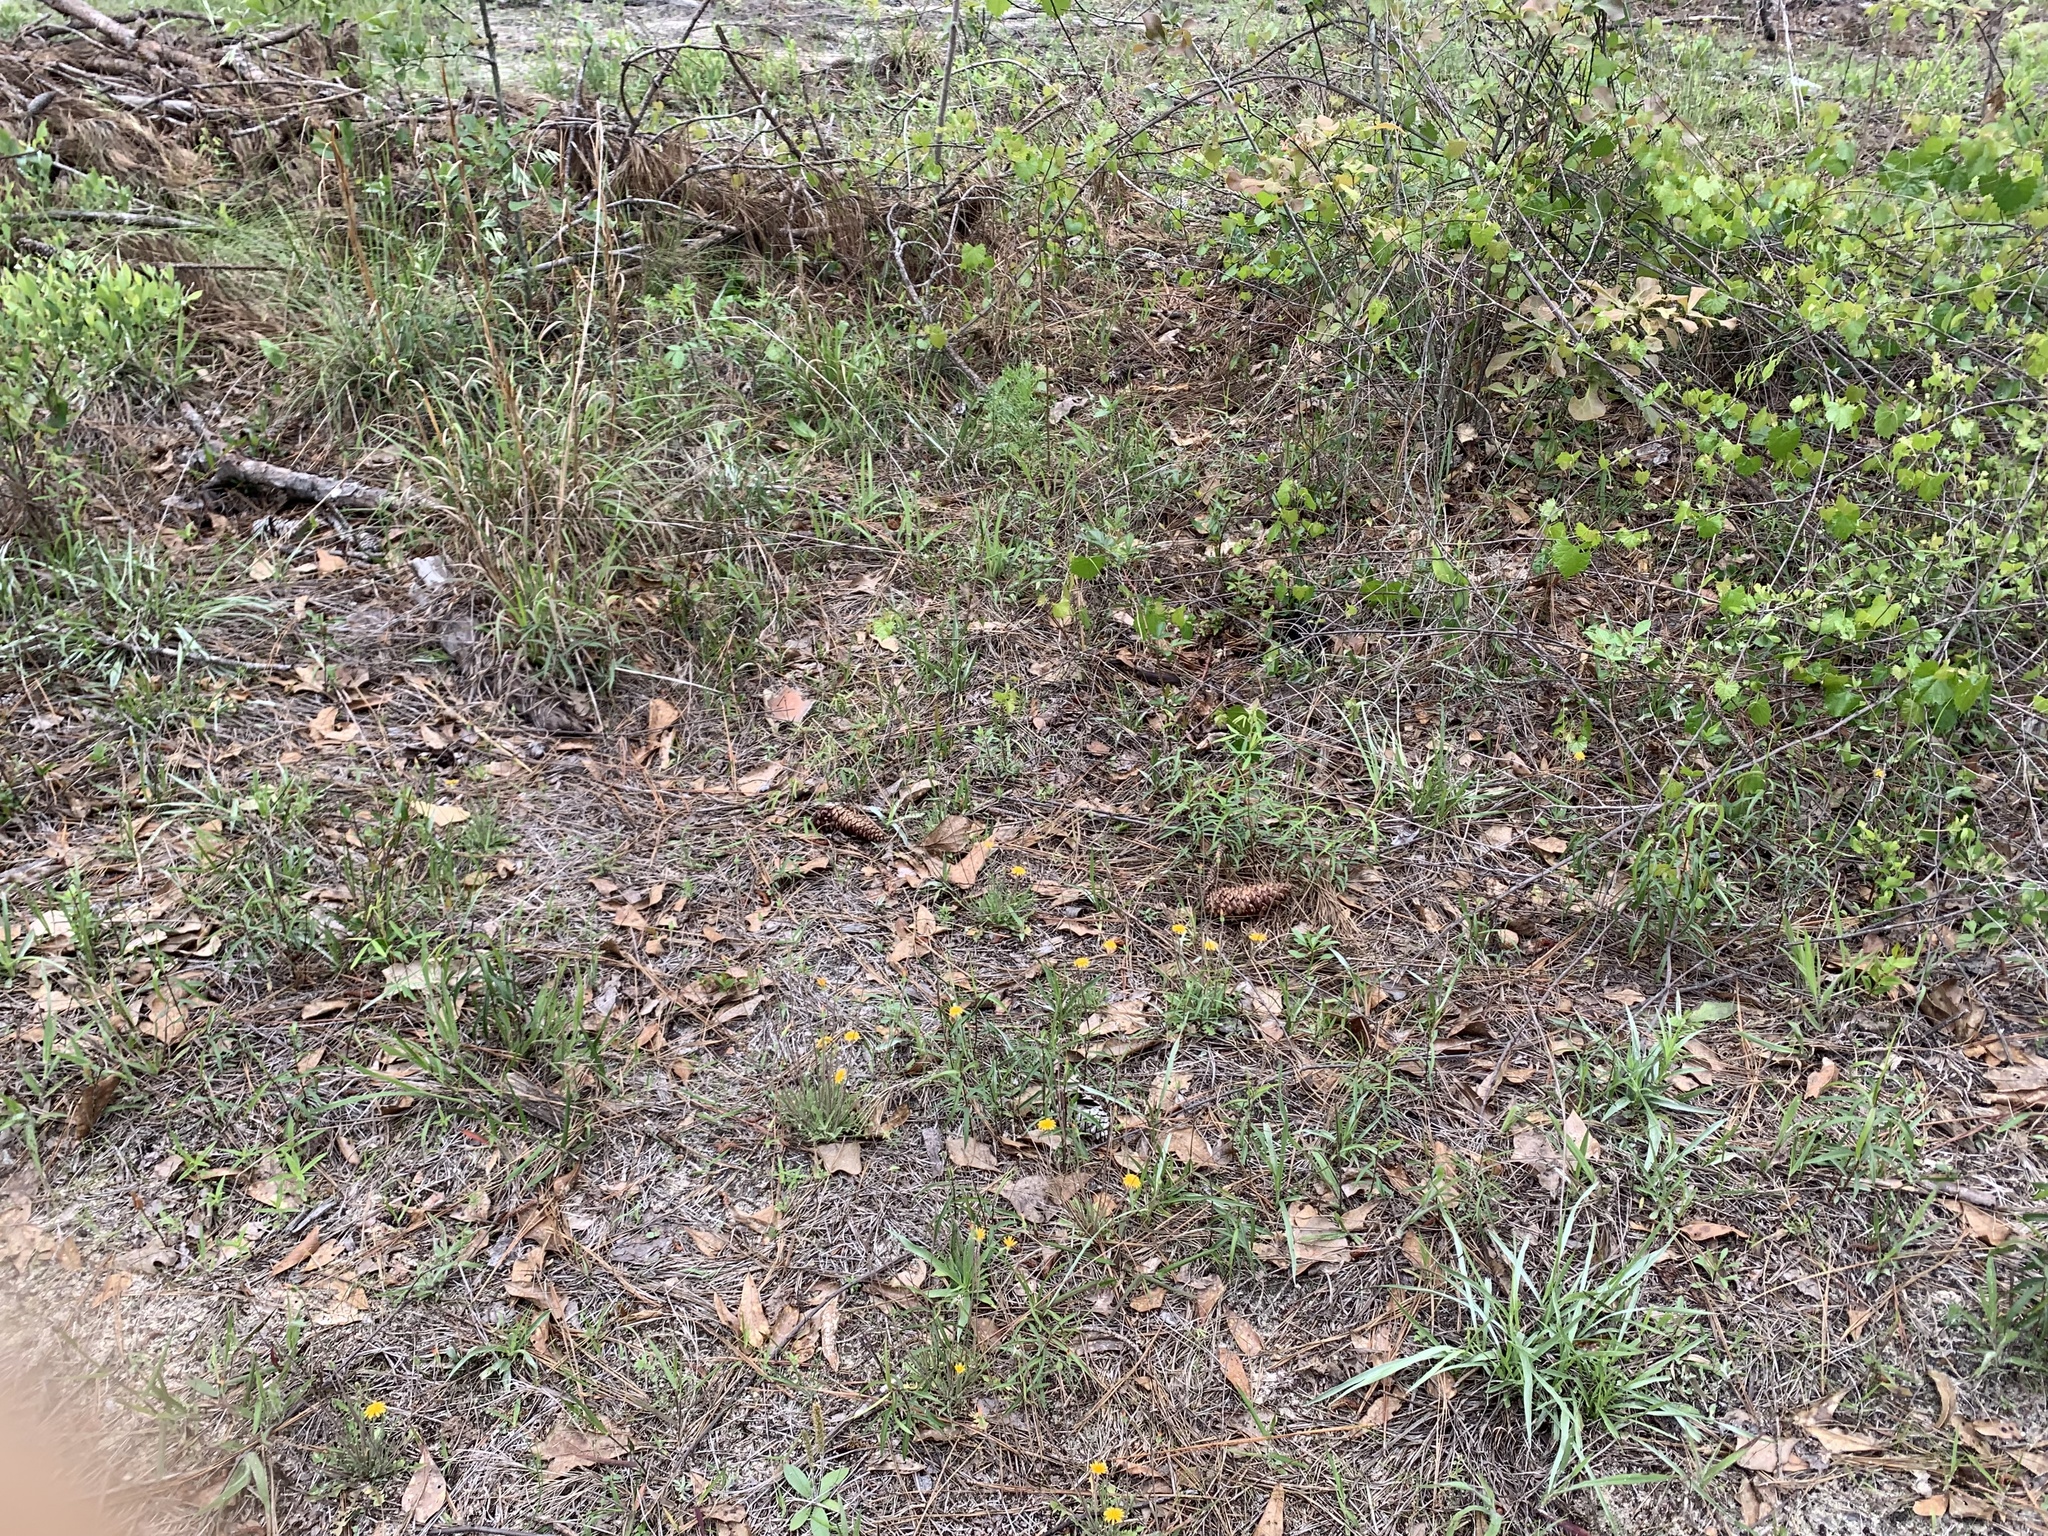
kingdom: Plantae
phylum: Tracheophyta
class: Magnoliopsida
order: Asterales
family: Asteraceae
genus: Krigia
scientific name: Krigia virginica
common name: Virginia dwarf-dandelion
